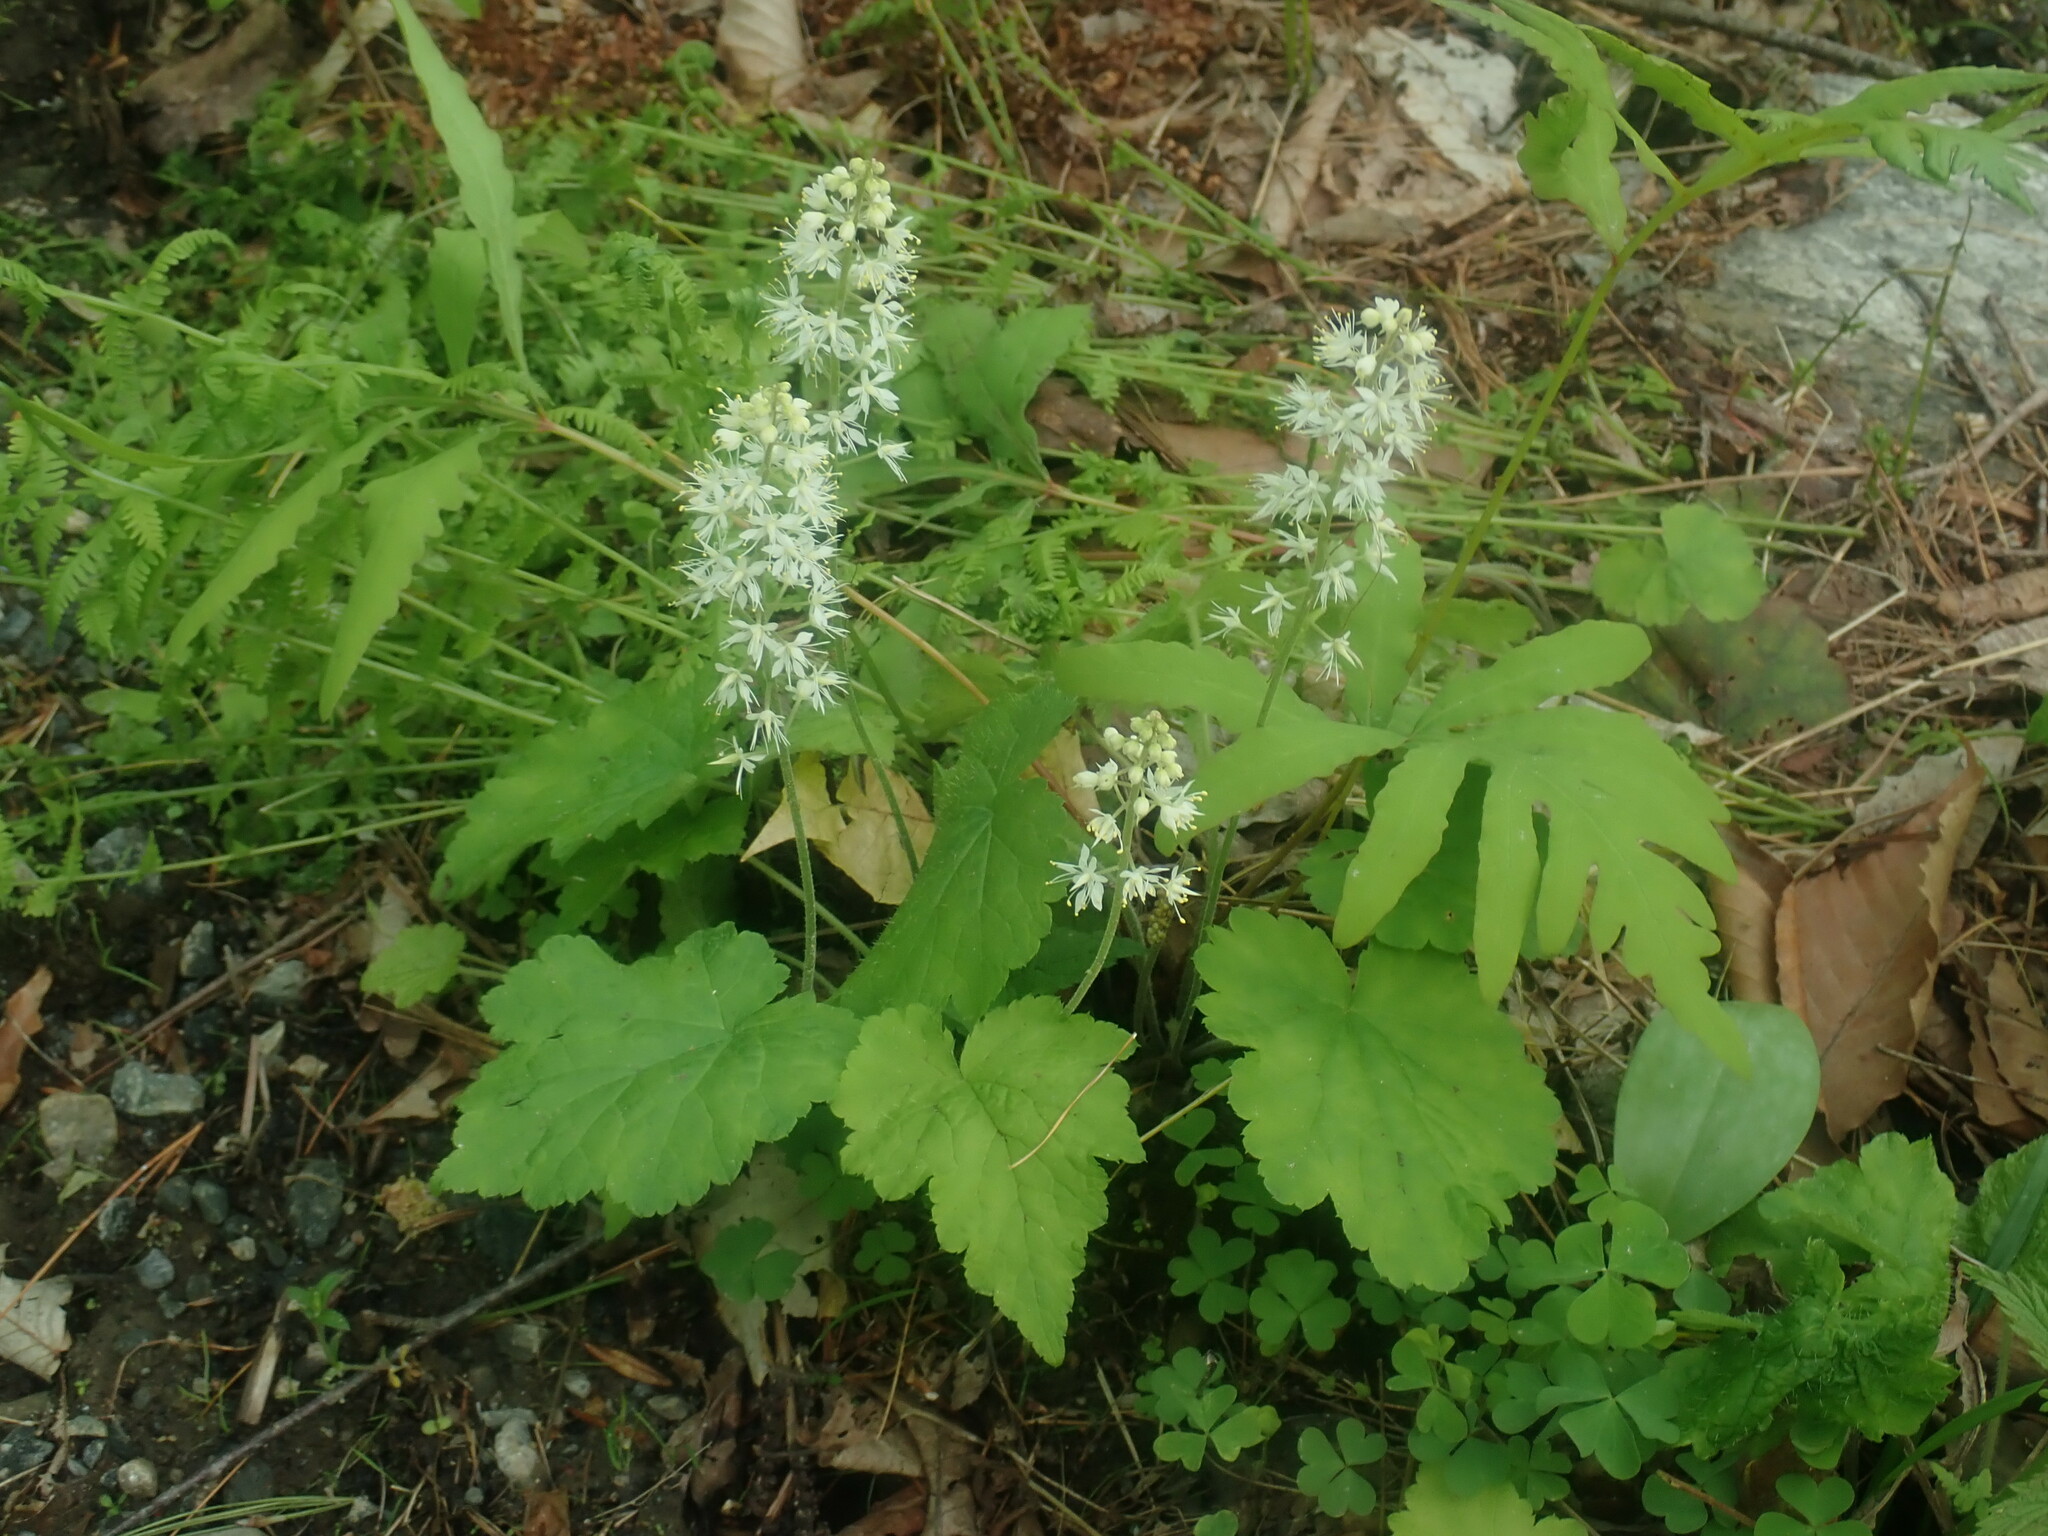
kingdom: Plantae
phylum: Tracheophyta
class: Magnoliopsida
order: Saxifragales
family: Saxifragaceae
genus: Tiarella
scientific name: Tiarella stolonifera
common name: Stoloniferous foamflower
